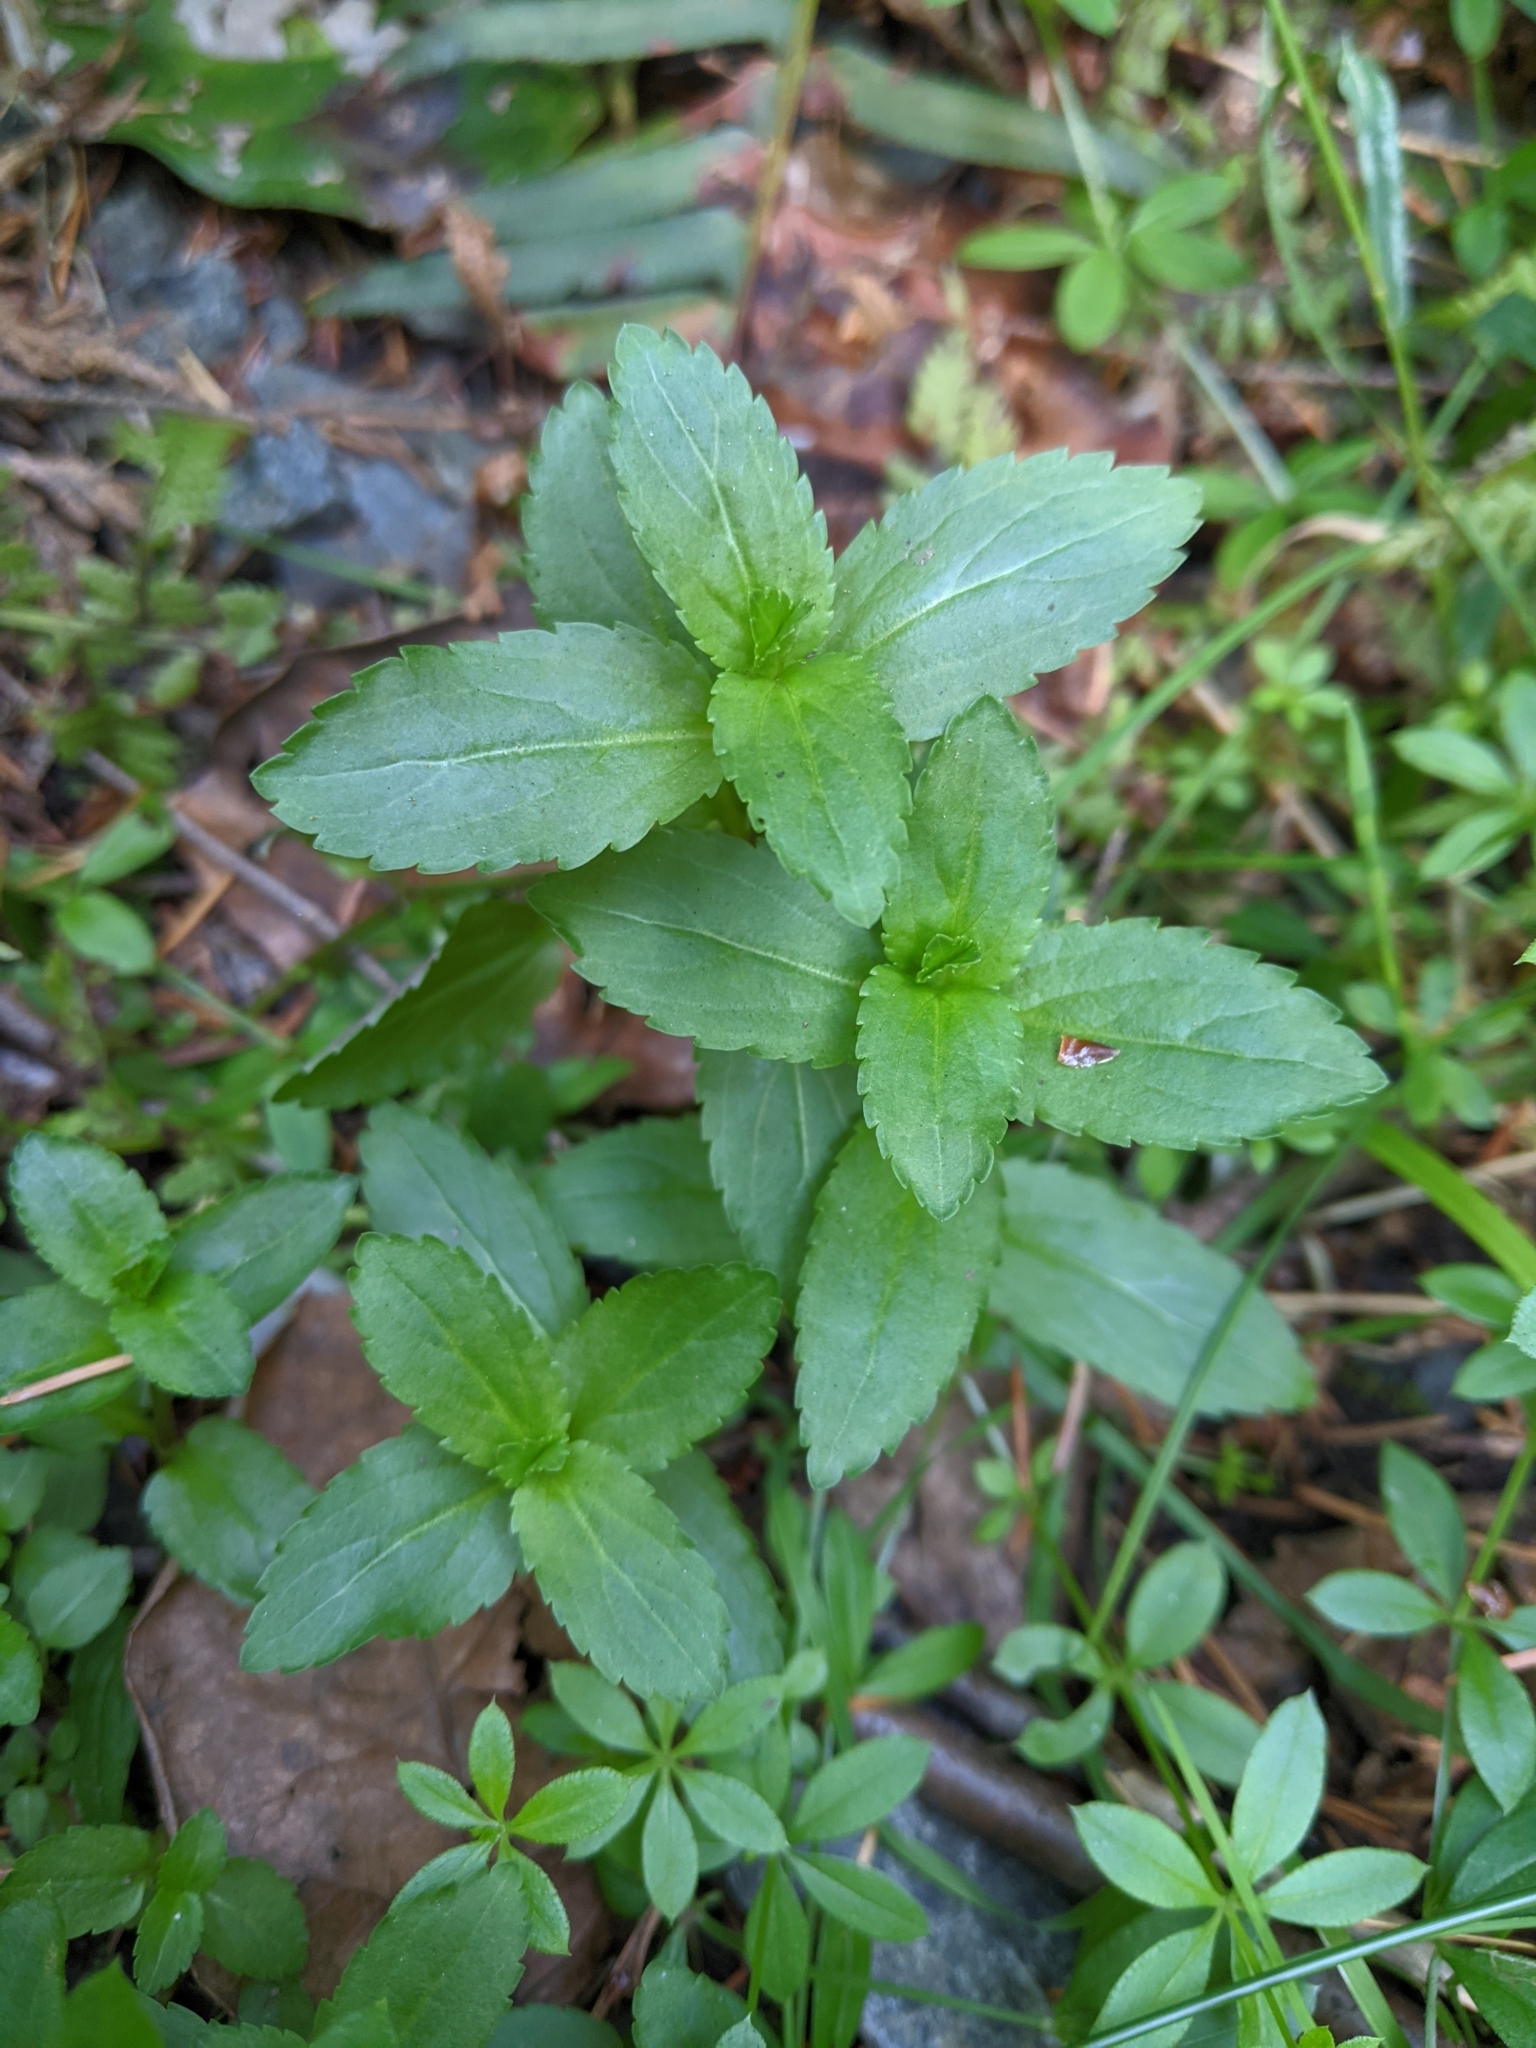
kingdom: Plantae
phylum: Tracheophyta
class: Magnoliopsida
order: Lamiales
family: Plantaginaceae
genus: Veronica
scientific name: Veronica americana
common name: American brooklime
